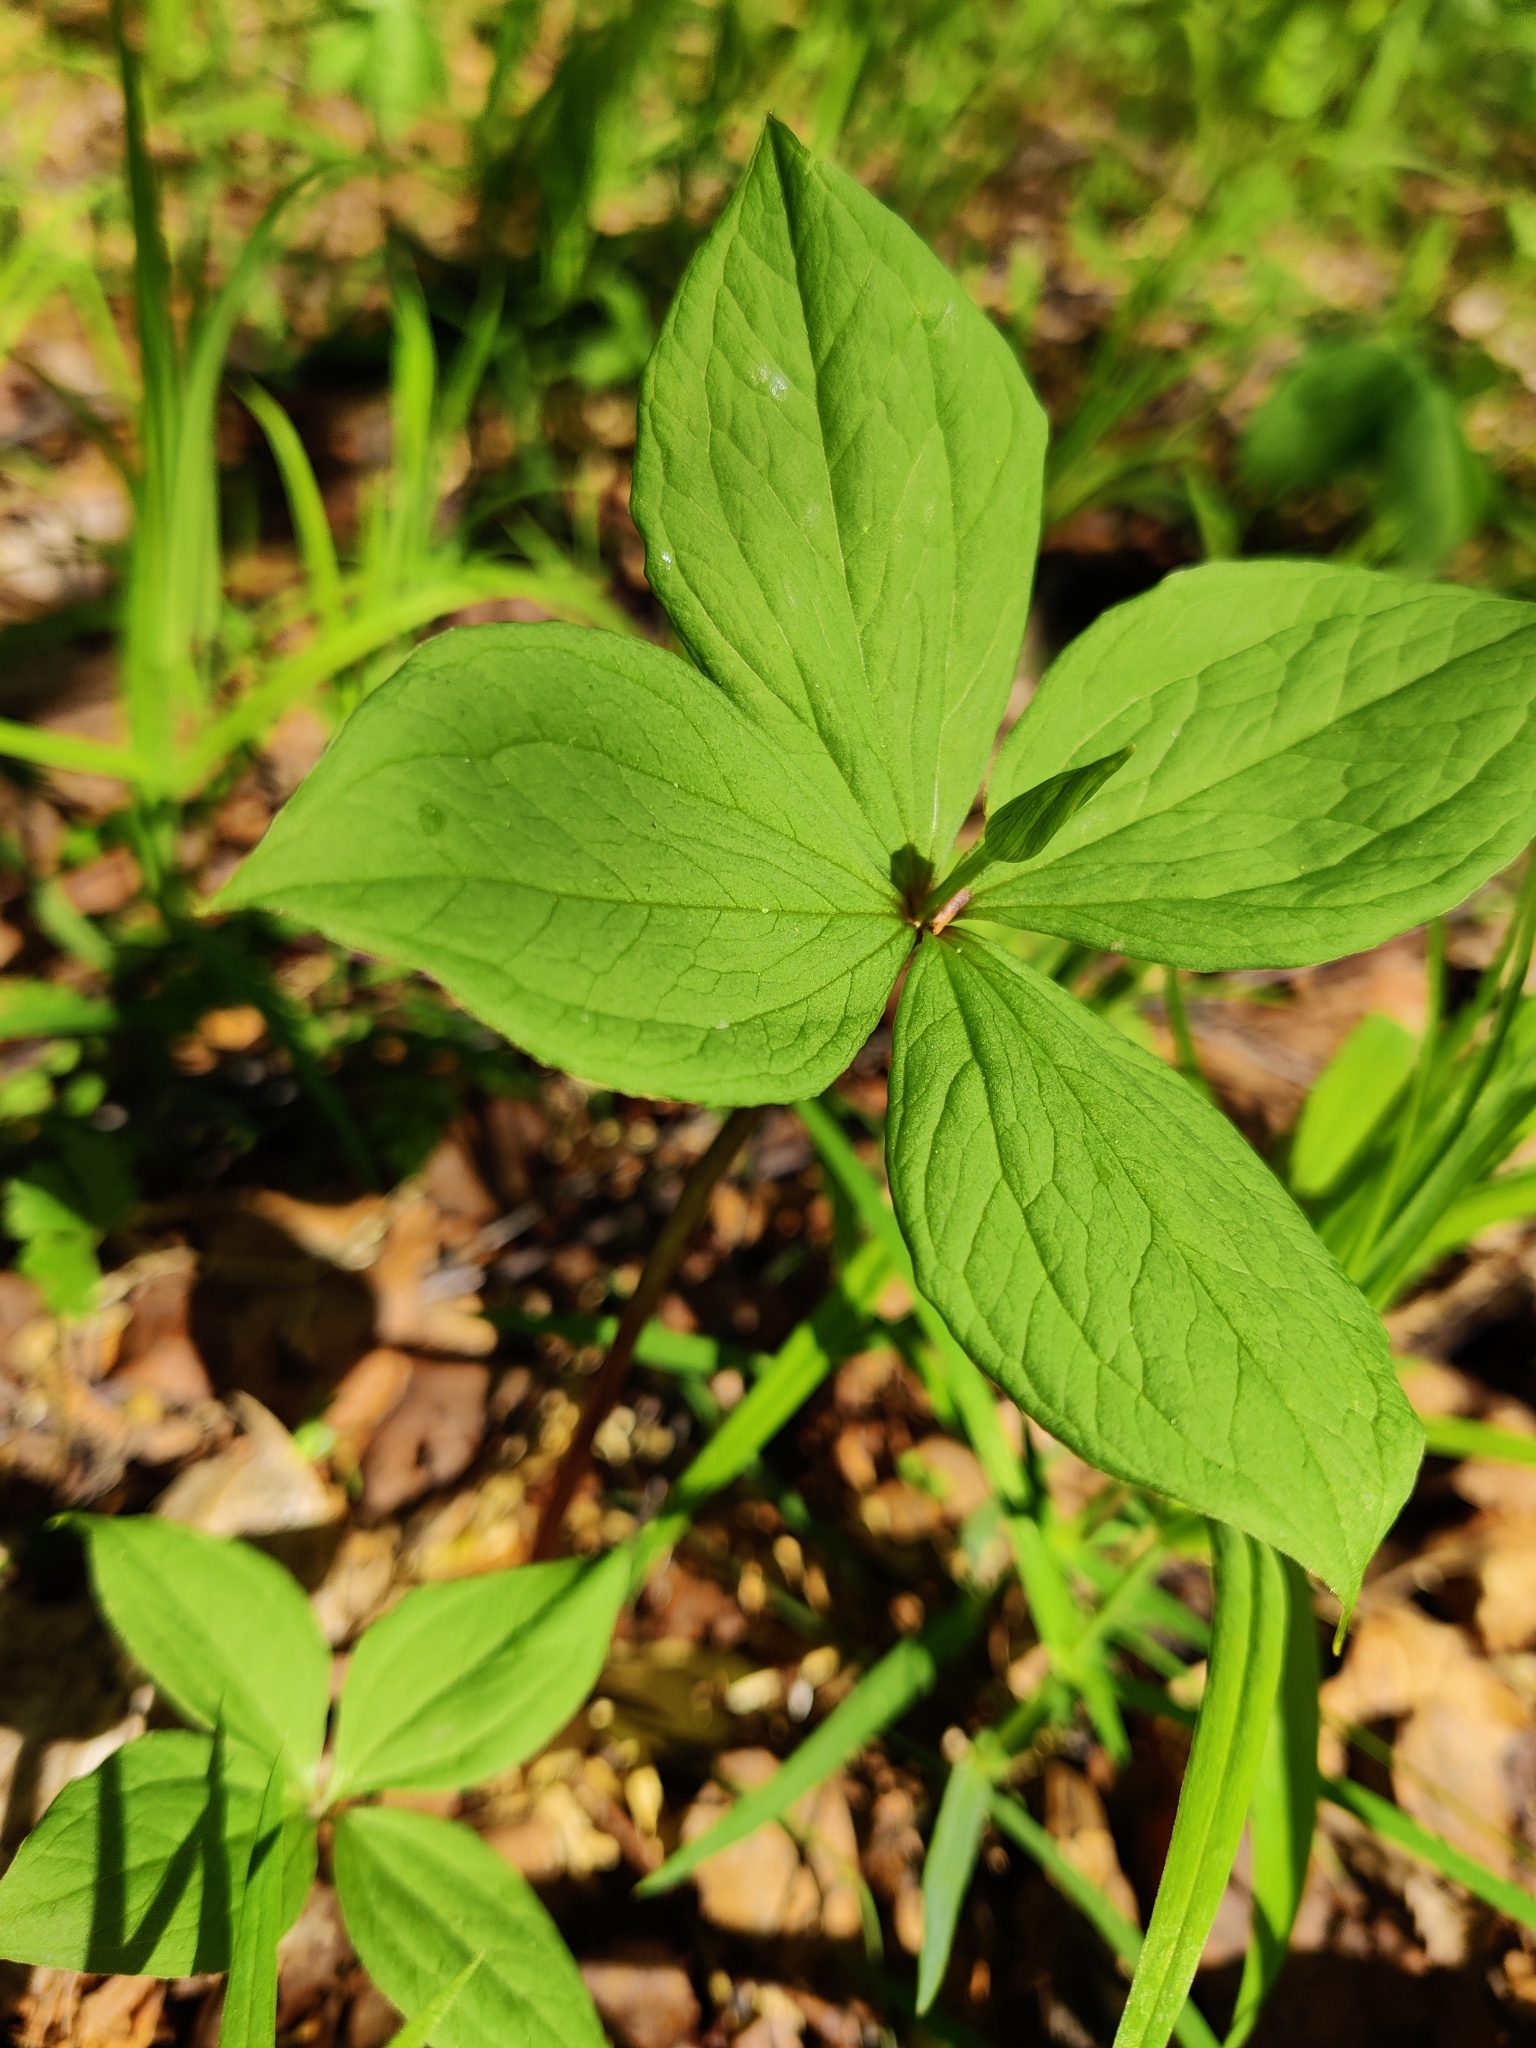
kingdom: Plantae
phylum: Tracheophyta
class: Liliopsida
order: Liliales
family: Melanthiaceae
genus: Paris
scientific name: Paris quadrifolia
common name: Herb-paris
